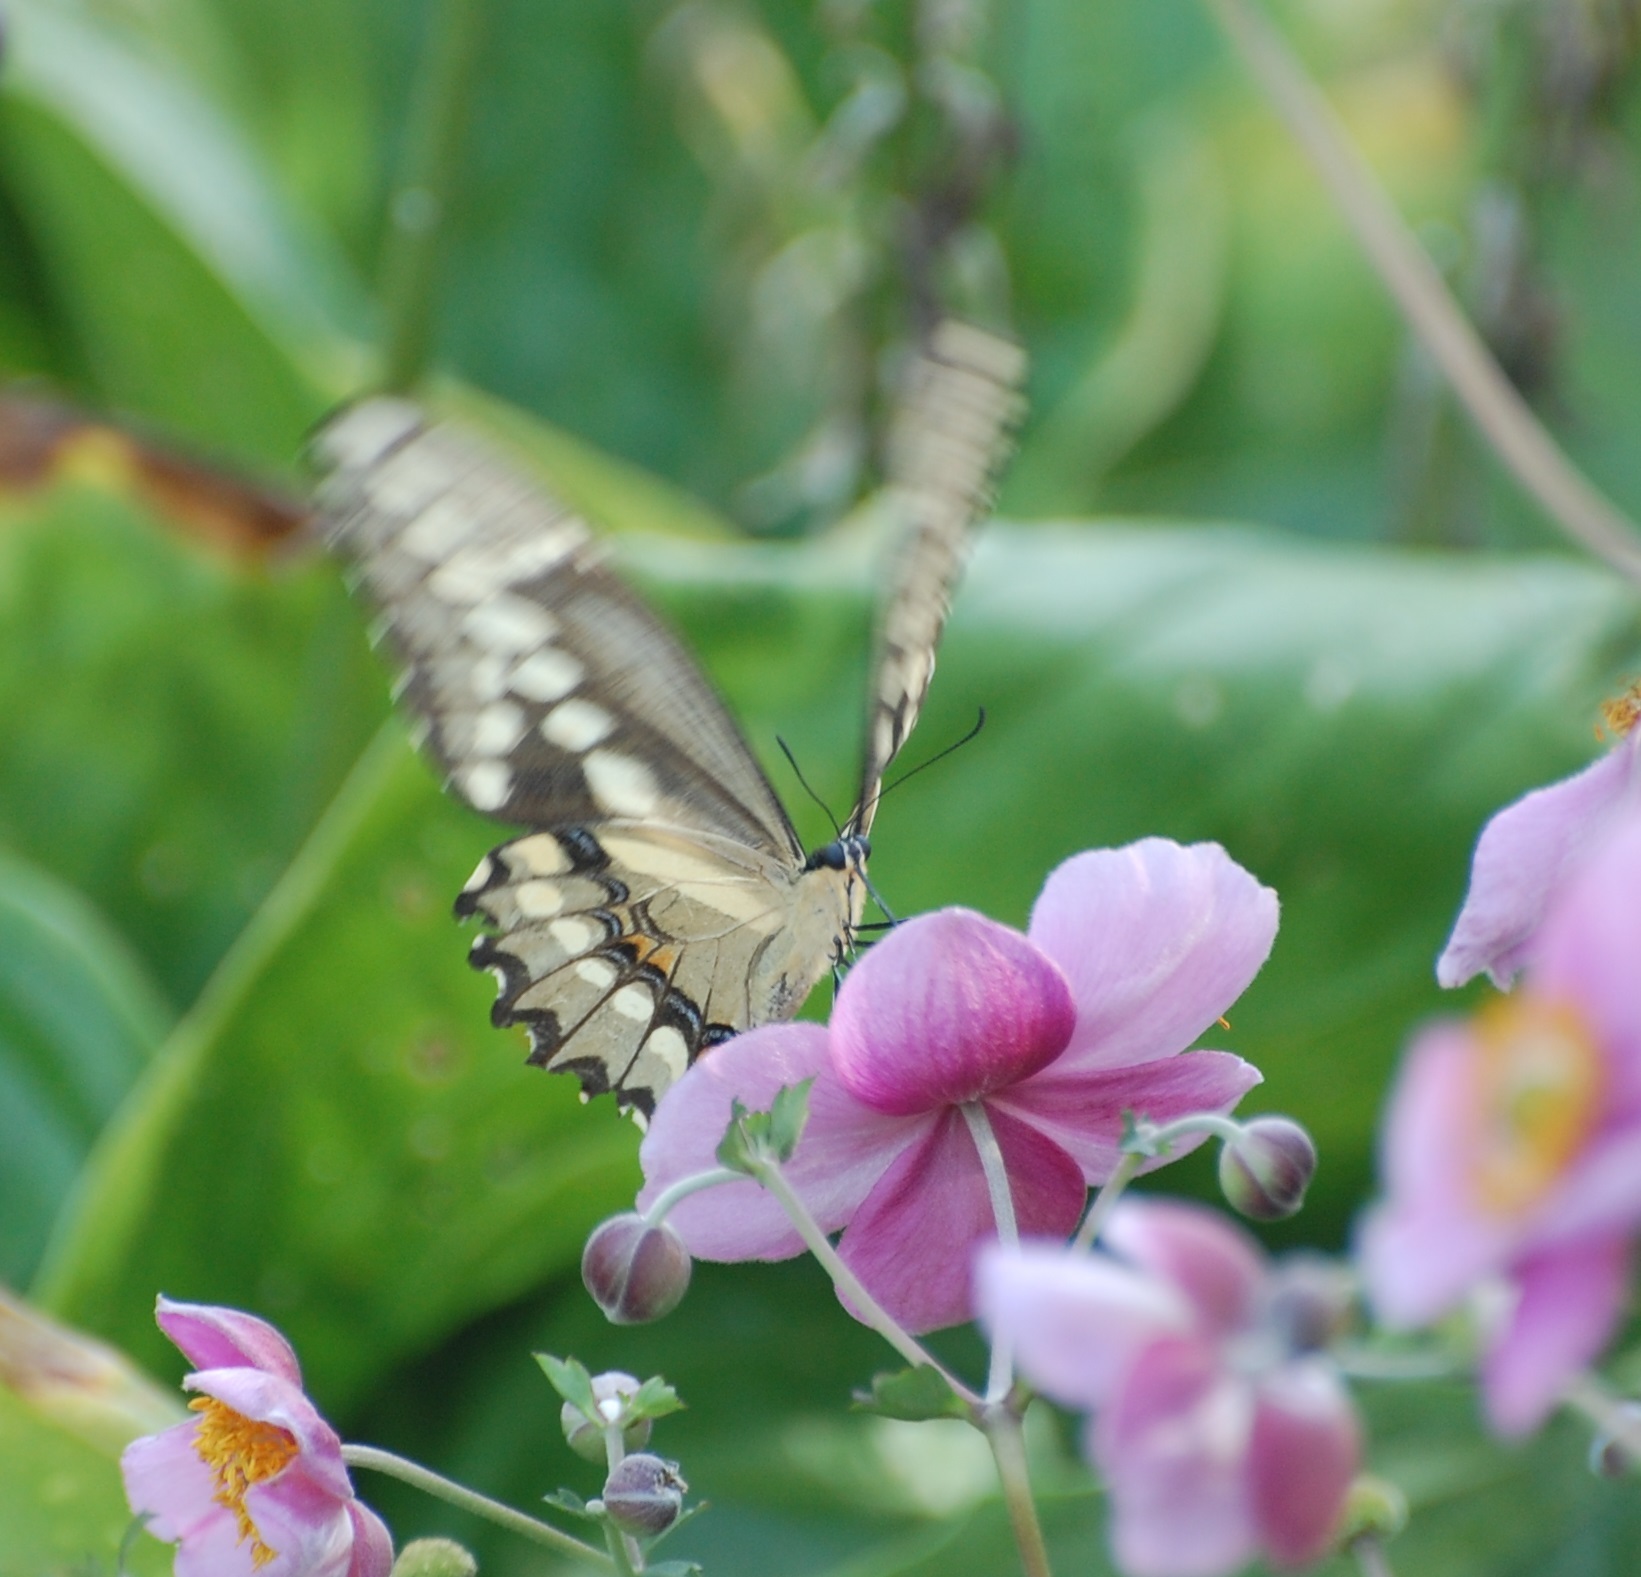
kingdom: Animalia
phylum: Arthropoda
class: Insecta
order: Lepidoptera
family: Papilionidae
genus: Papilio
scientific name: Papilio cresphontes
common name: Giant swallowtail
